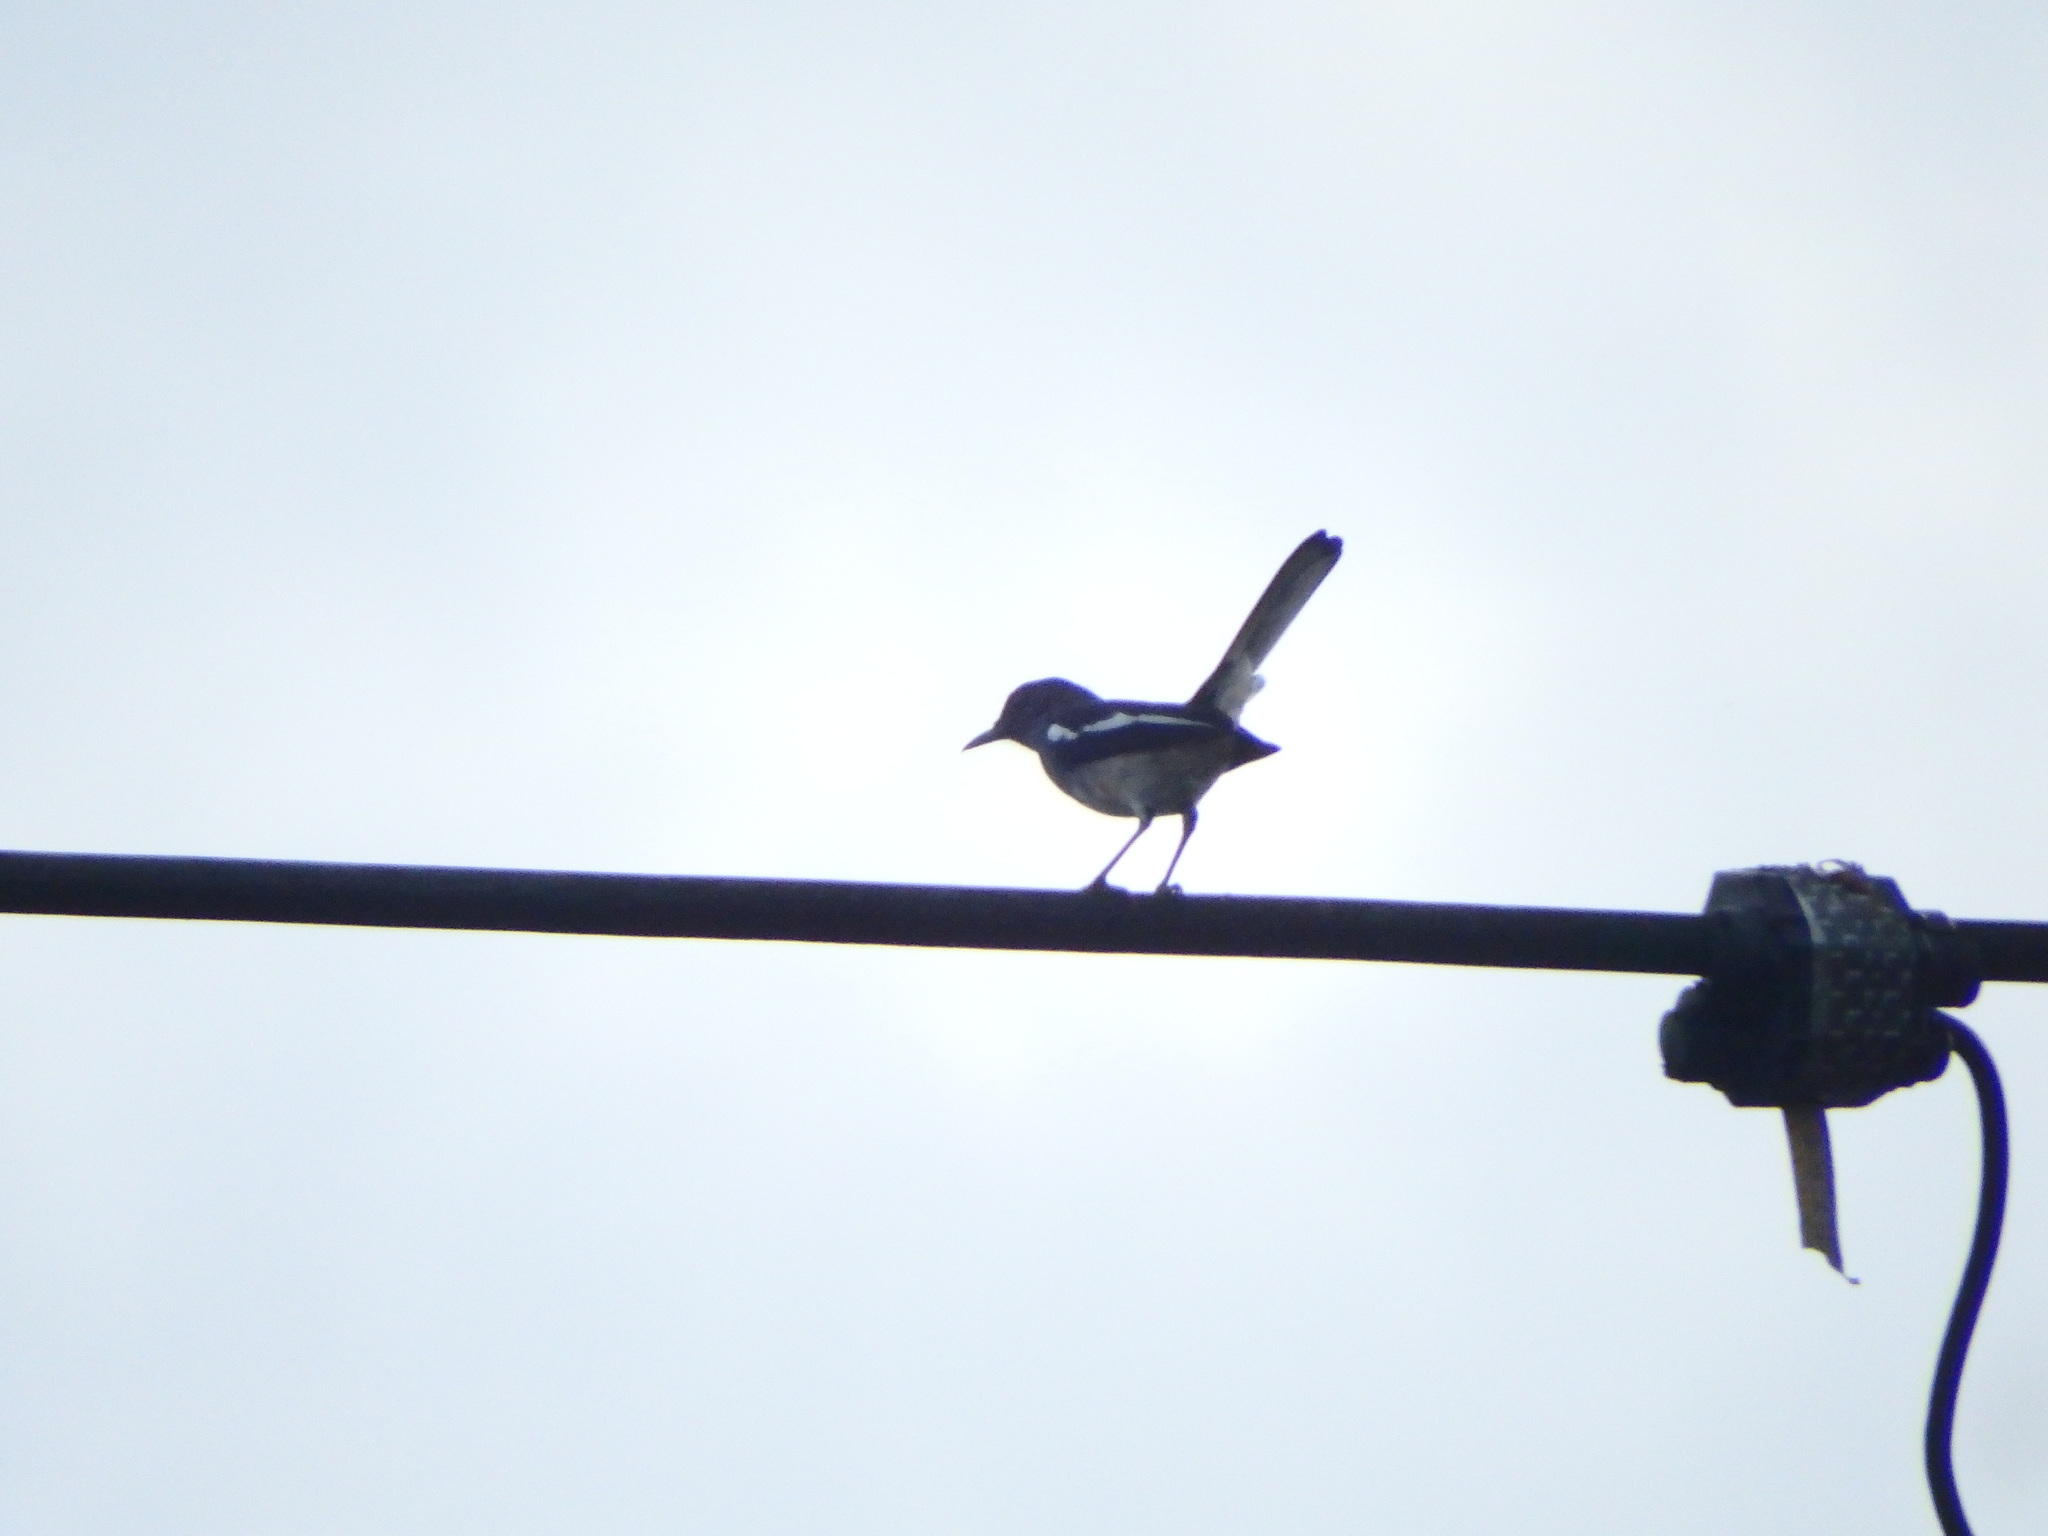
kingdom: Animalia
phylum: Chordata
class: Aves
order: Passeriformes
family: Muscicapidae
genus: Copsychus
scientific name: Copsychus saularis
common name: Oriental magpie-robin
